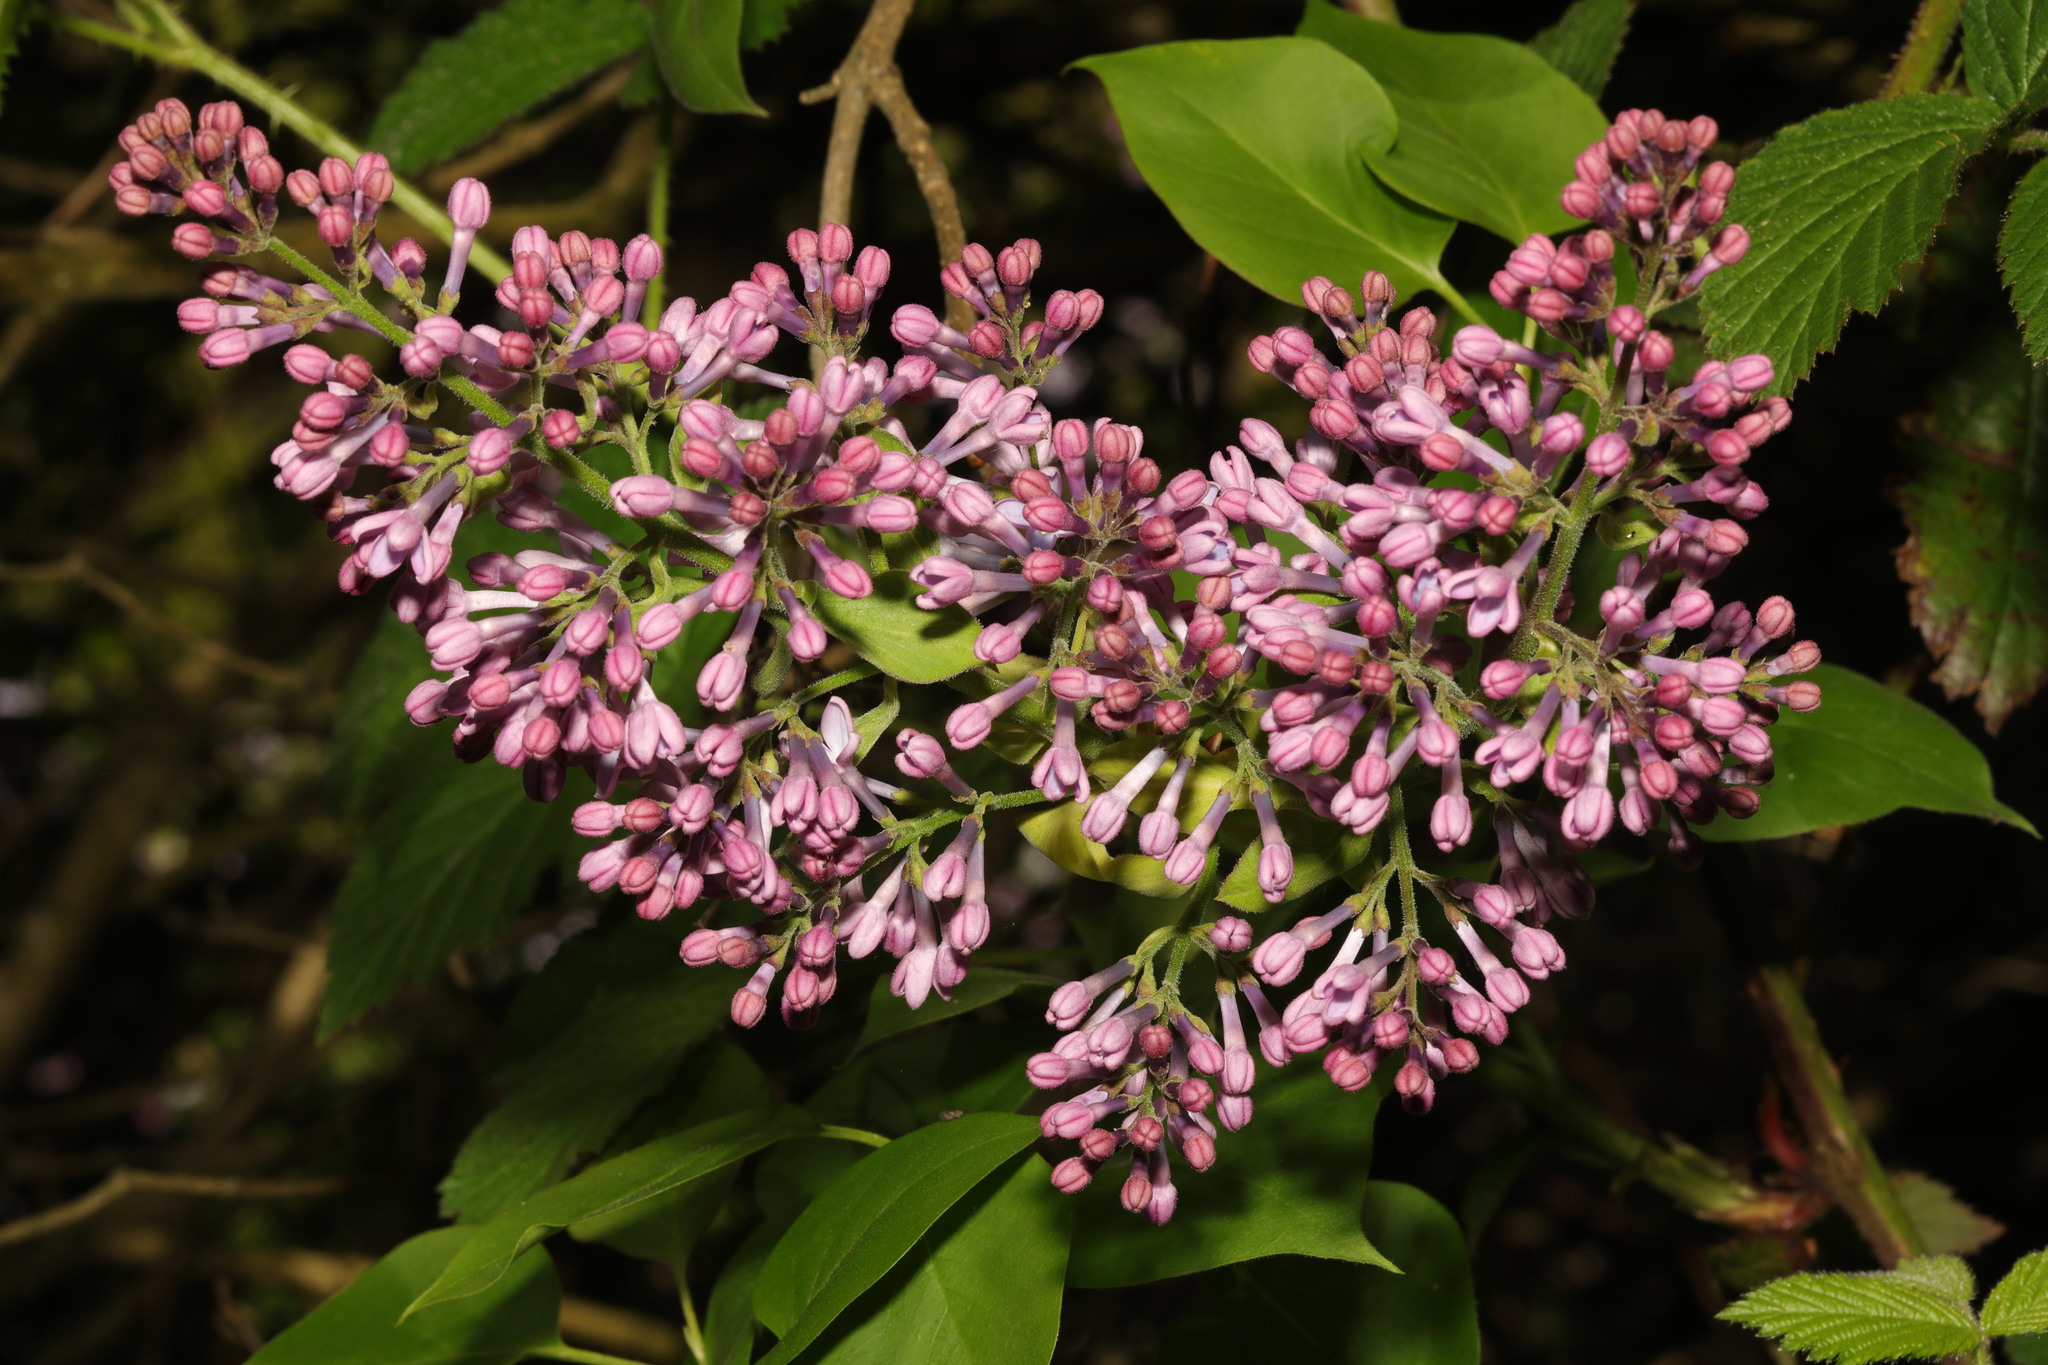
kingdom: Plantae
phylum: Tracheophyta
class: Magnoliopsida
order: Lamiales
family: Oleaceae
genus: Syringa
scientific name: Syringa vulgaris
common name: Common lilac
